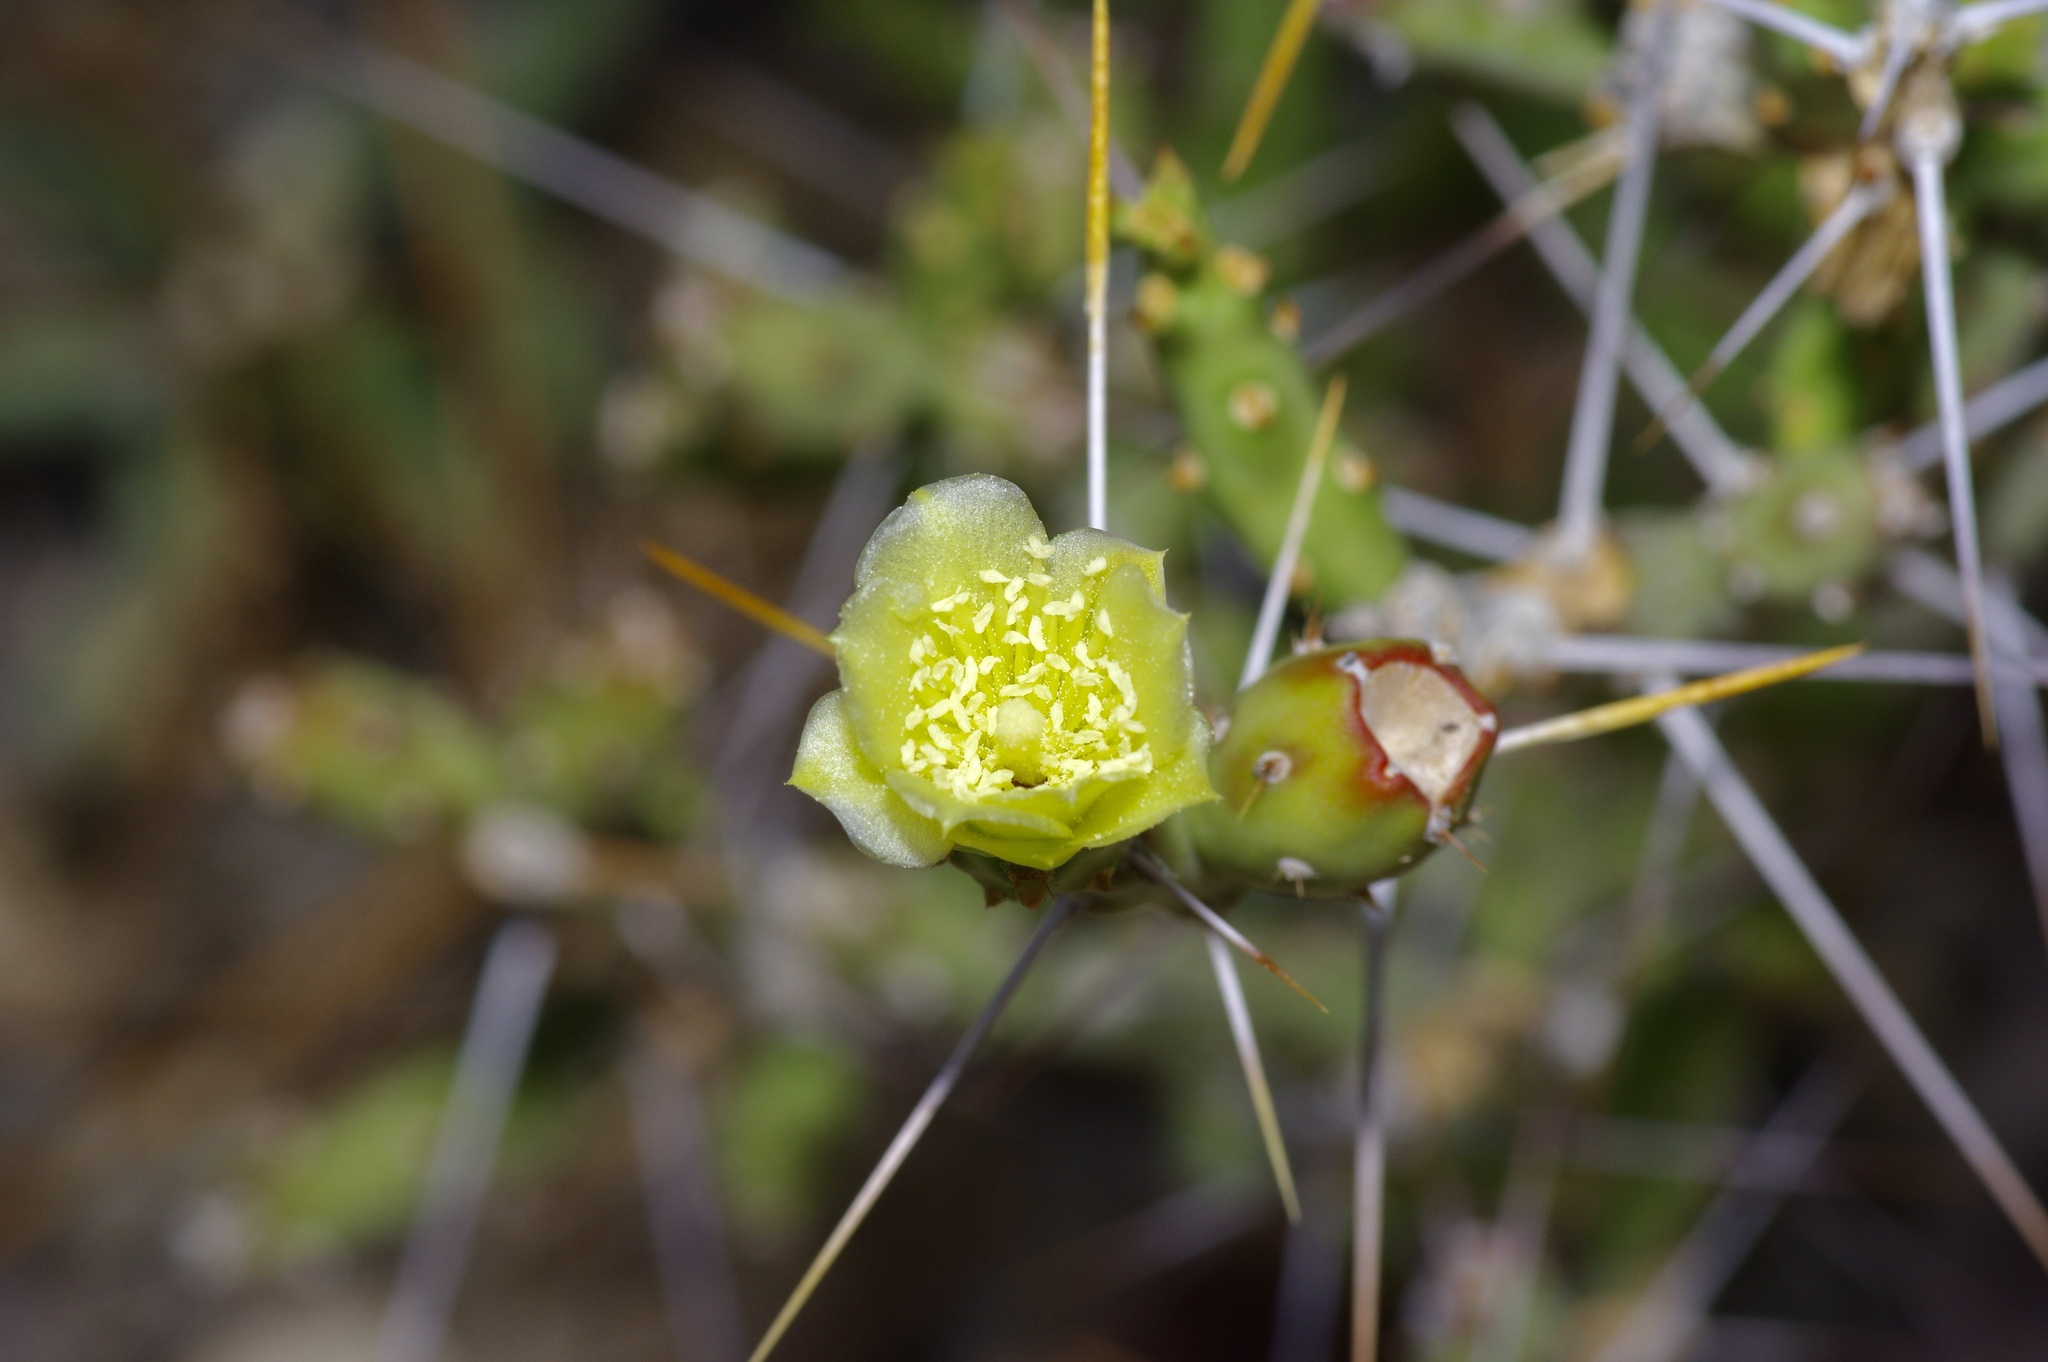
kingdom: Plantae
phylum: Tracheophyta
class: Magnoliopsida
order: Caryophyllales
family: Cactaceae
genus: Cylindropuntia
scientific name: Cylindropuntia leptocaulis
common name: Christmas cactus
